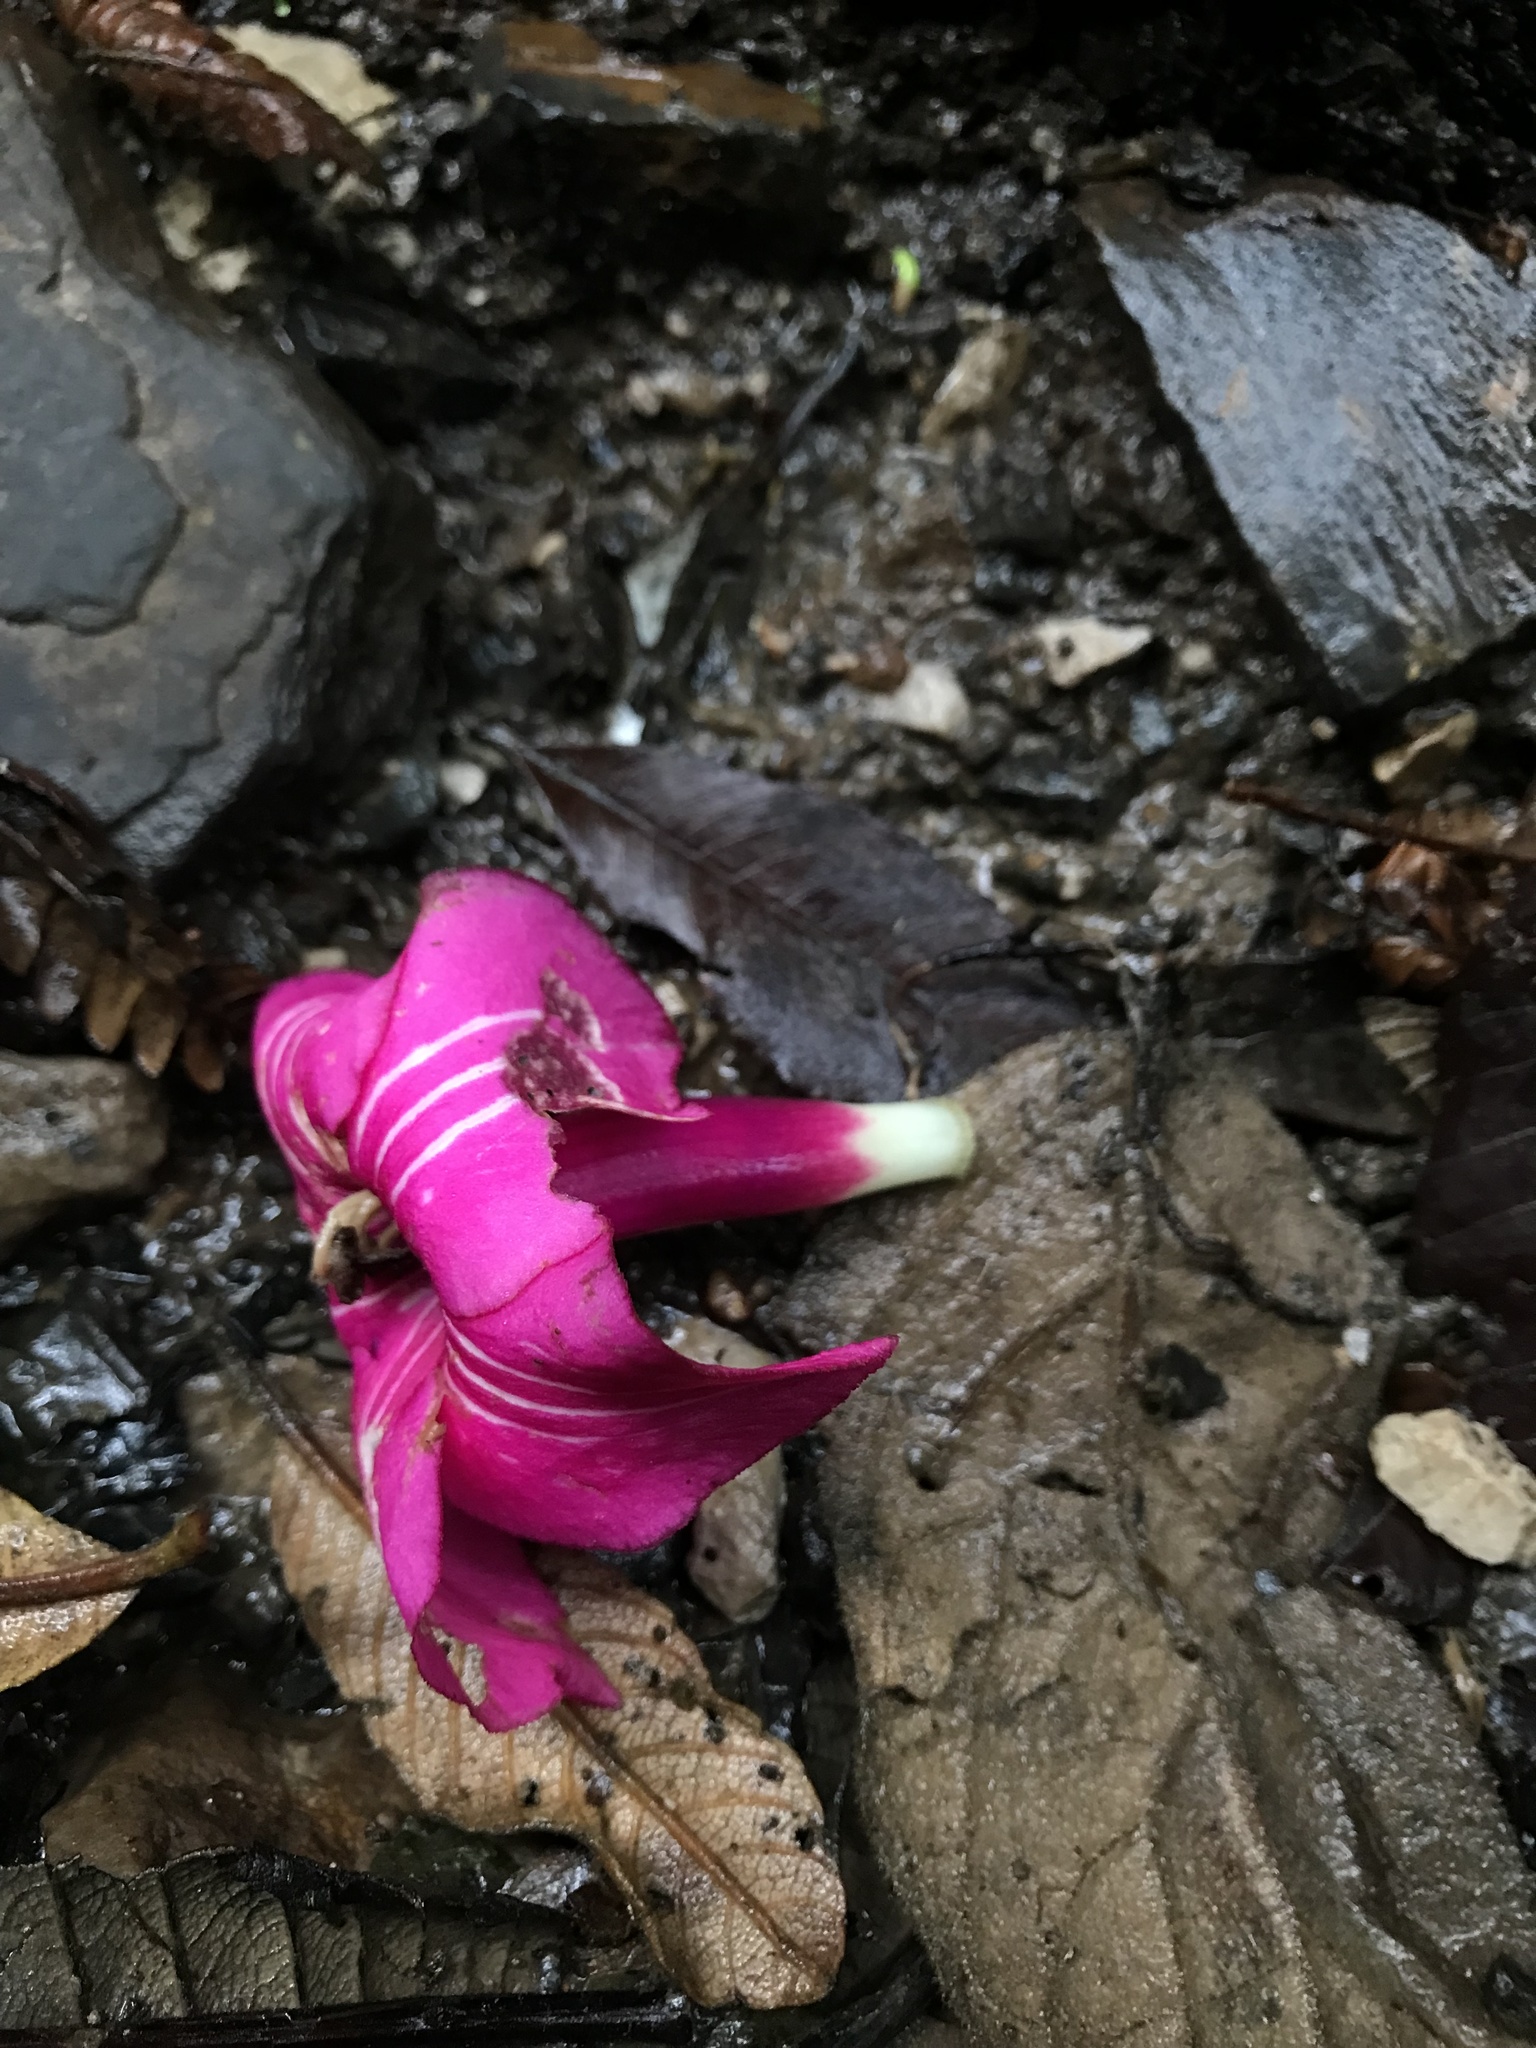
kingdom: Plantae
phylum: Tracheophyta
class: Magnoliopsida
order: Gentianales
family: Gentianaceae
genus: Symbolanthus
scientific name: Symbolanthus anomalus
